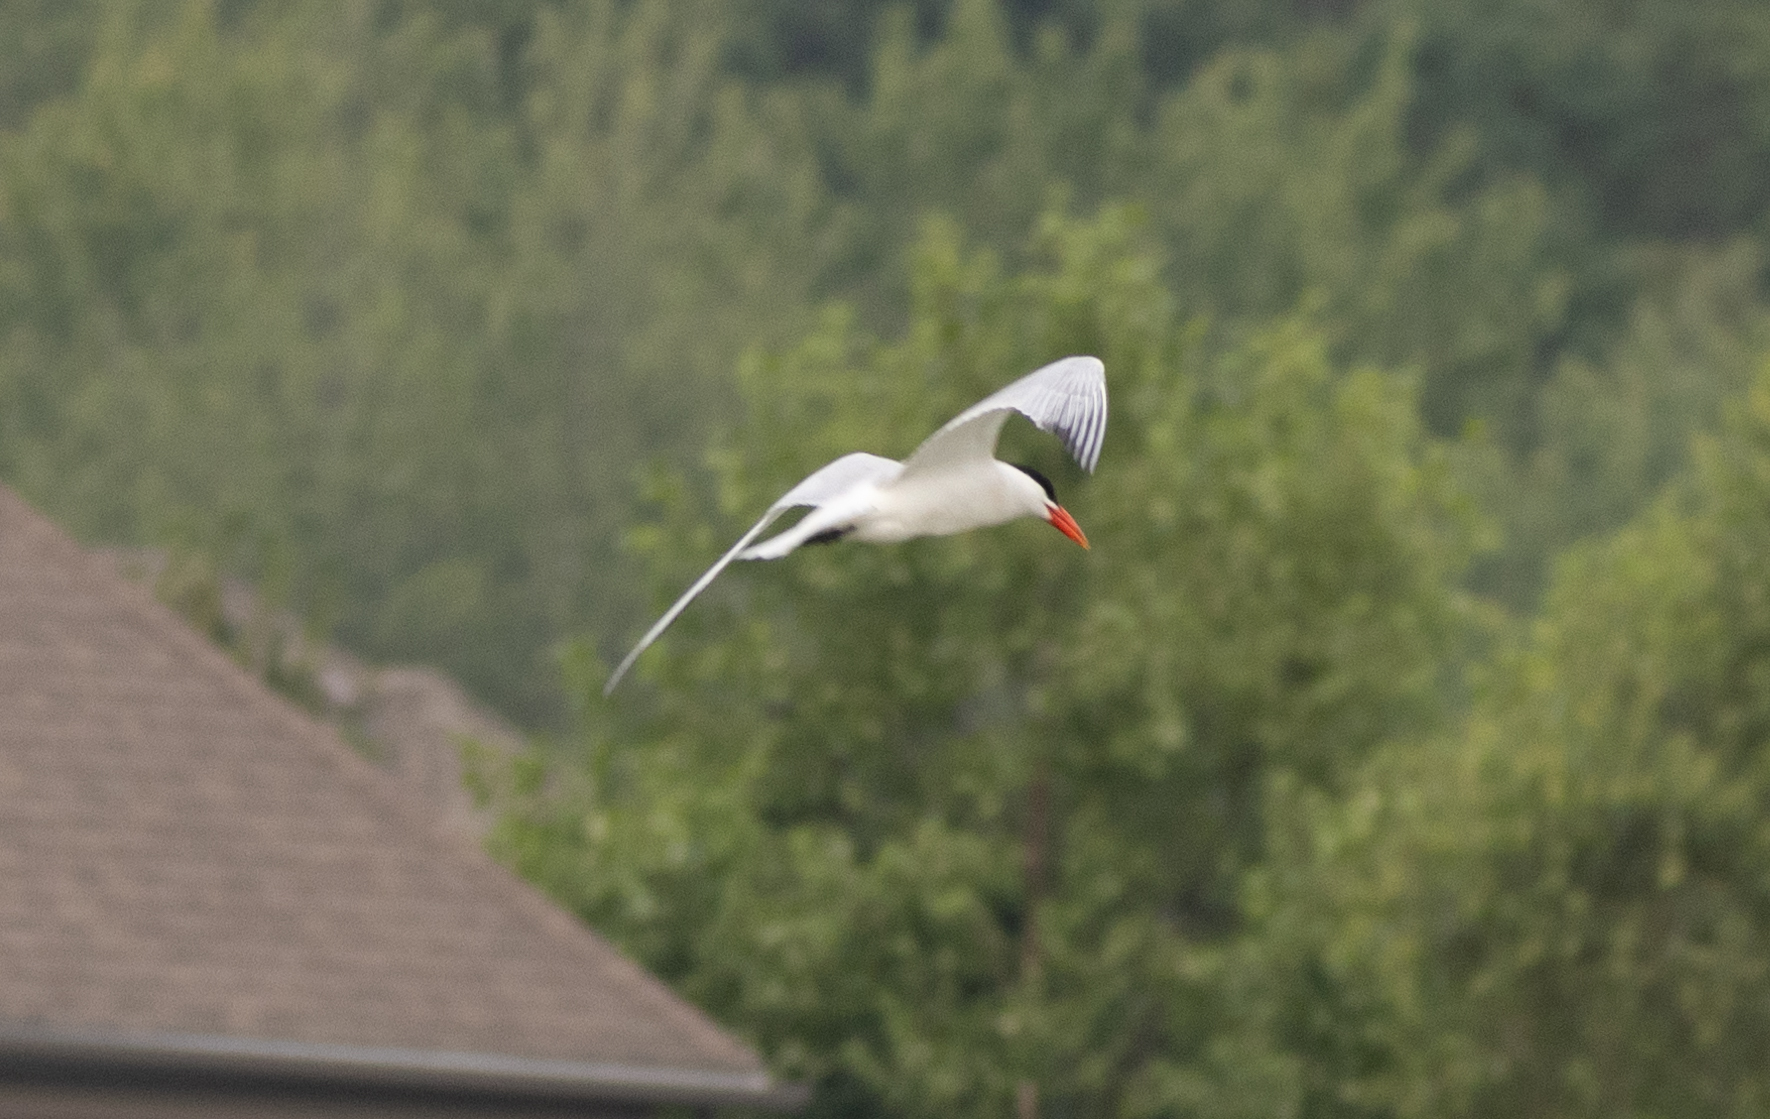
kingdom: Animalia
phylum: Chordata
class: Aves
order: Charadriiformes
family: Laridae
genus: Hydroprogne
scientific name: Hydroprogne caspia
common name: Caspian tern
